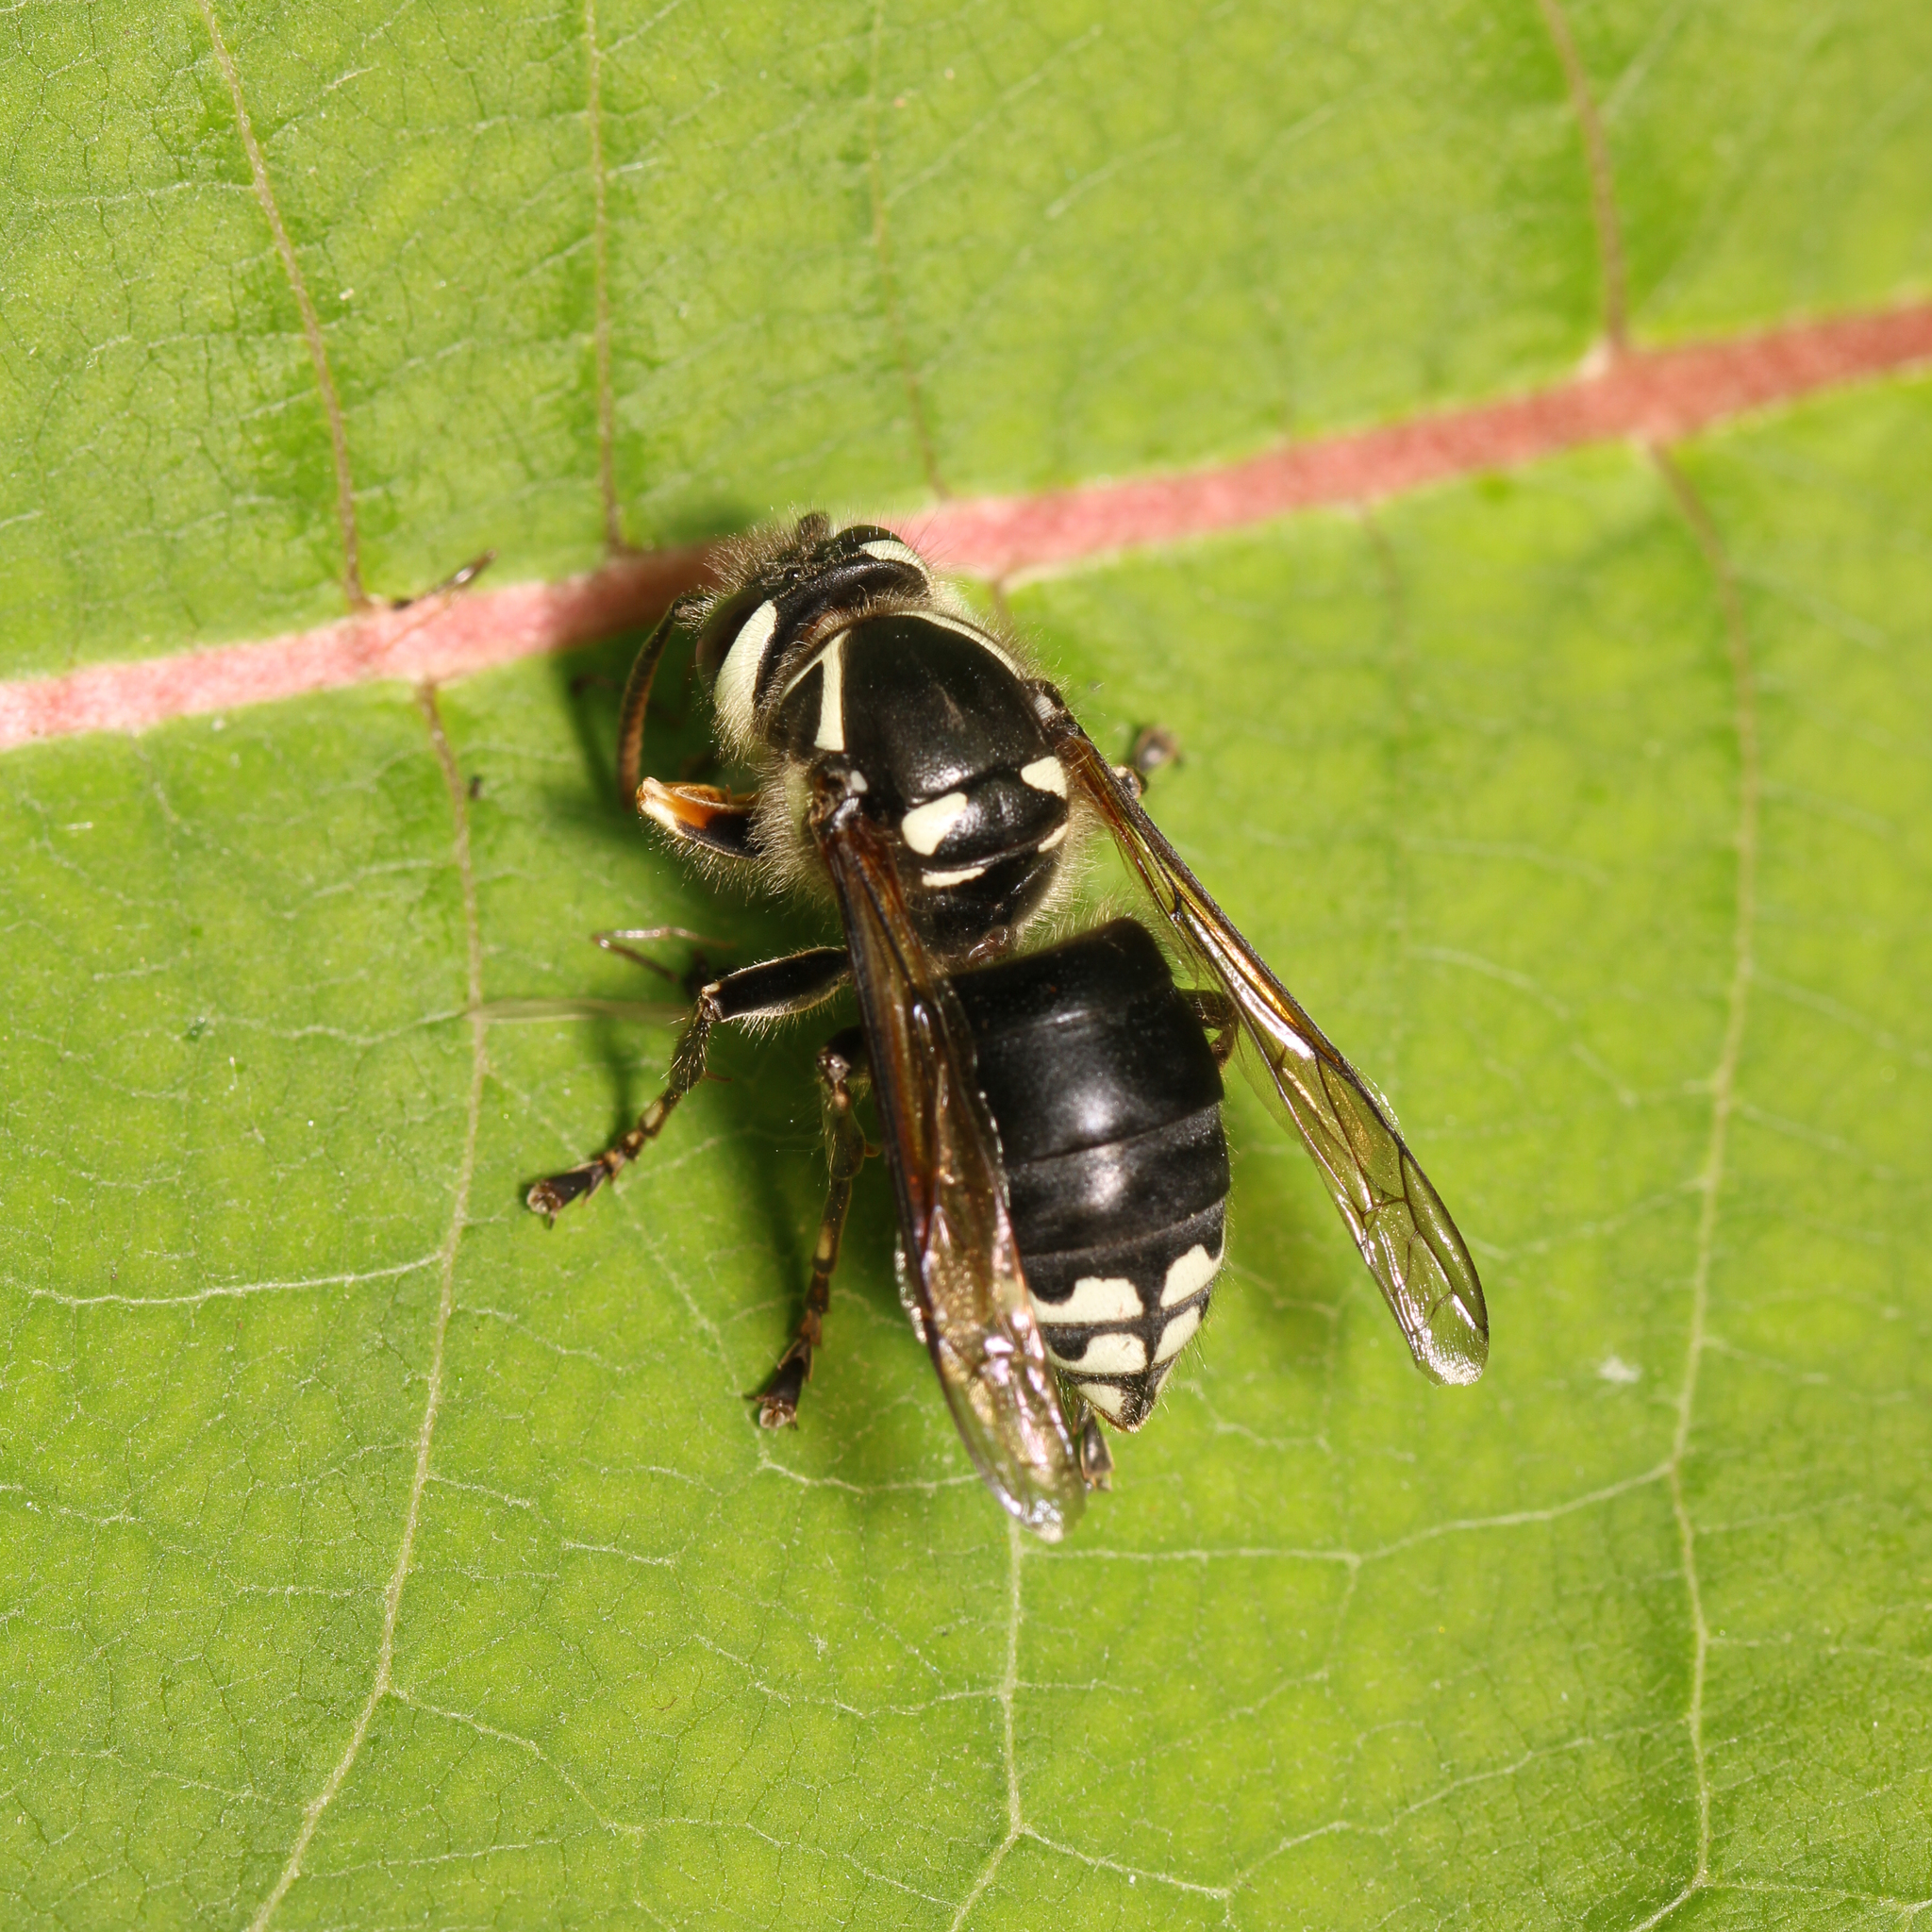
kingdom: Animalia
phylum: Arthropoda
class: Insecta
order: Hymenoptera
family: Vespidae
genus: Dolichovespula
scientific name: Dolichovespula maculata
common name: Bald-faced hornet
